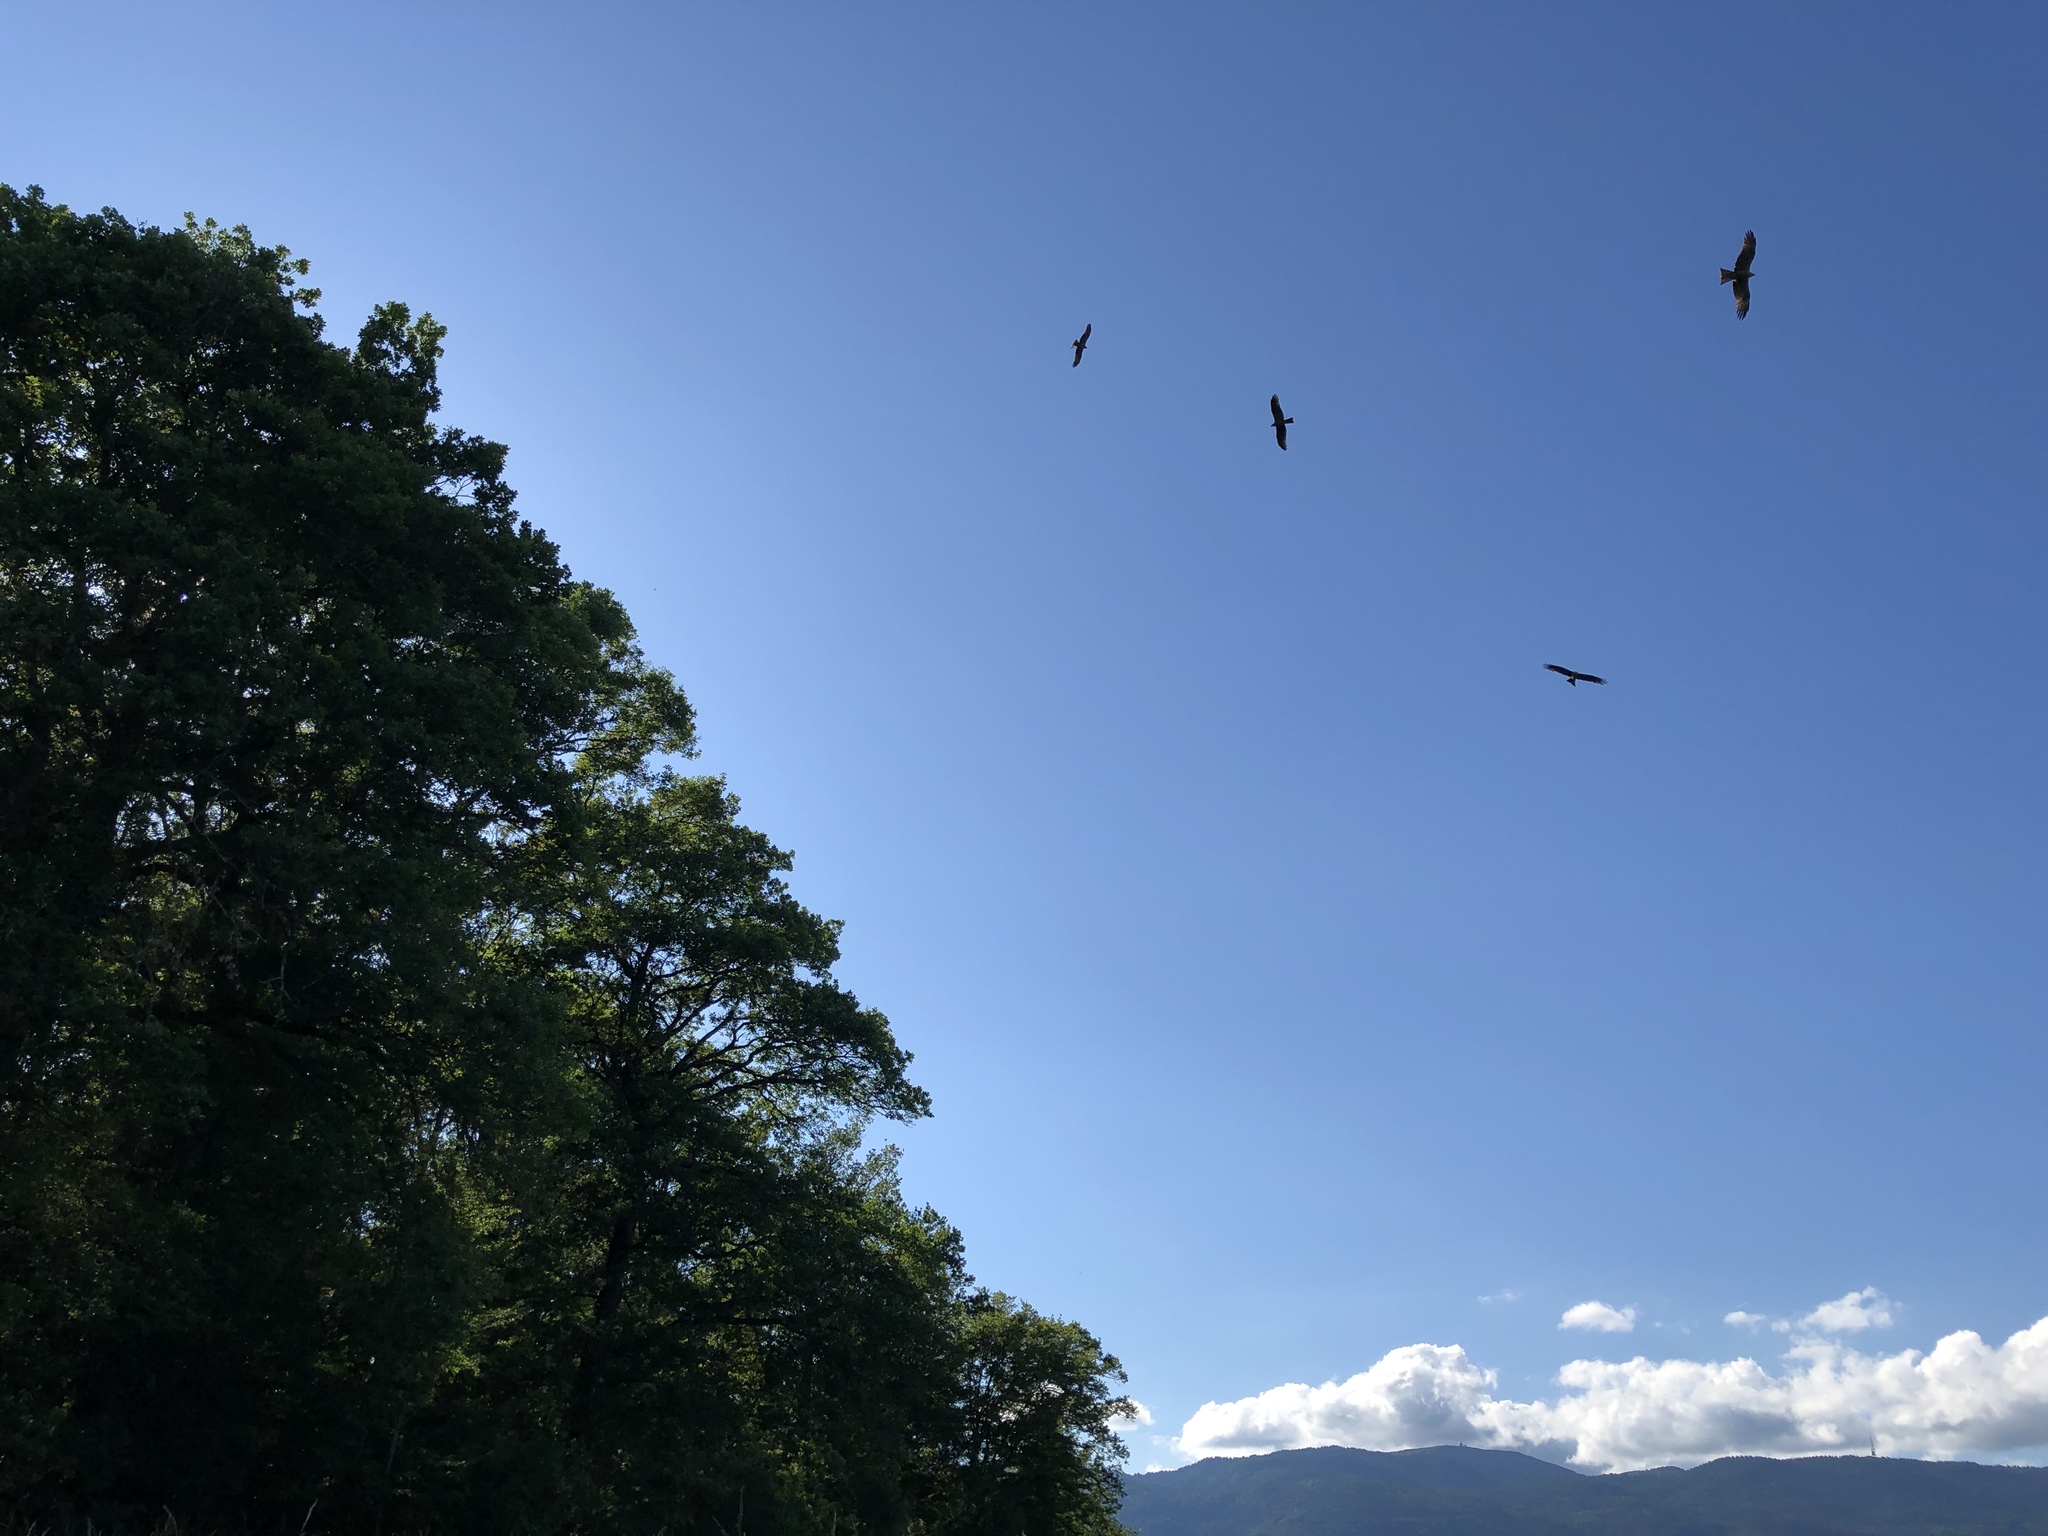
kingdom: Animalia
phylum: Chordata
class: Aves
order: Accipitriformes
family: Accipitridae
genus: Milvus
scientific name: Milvus migrans
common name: Black kite
